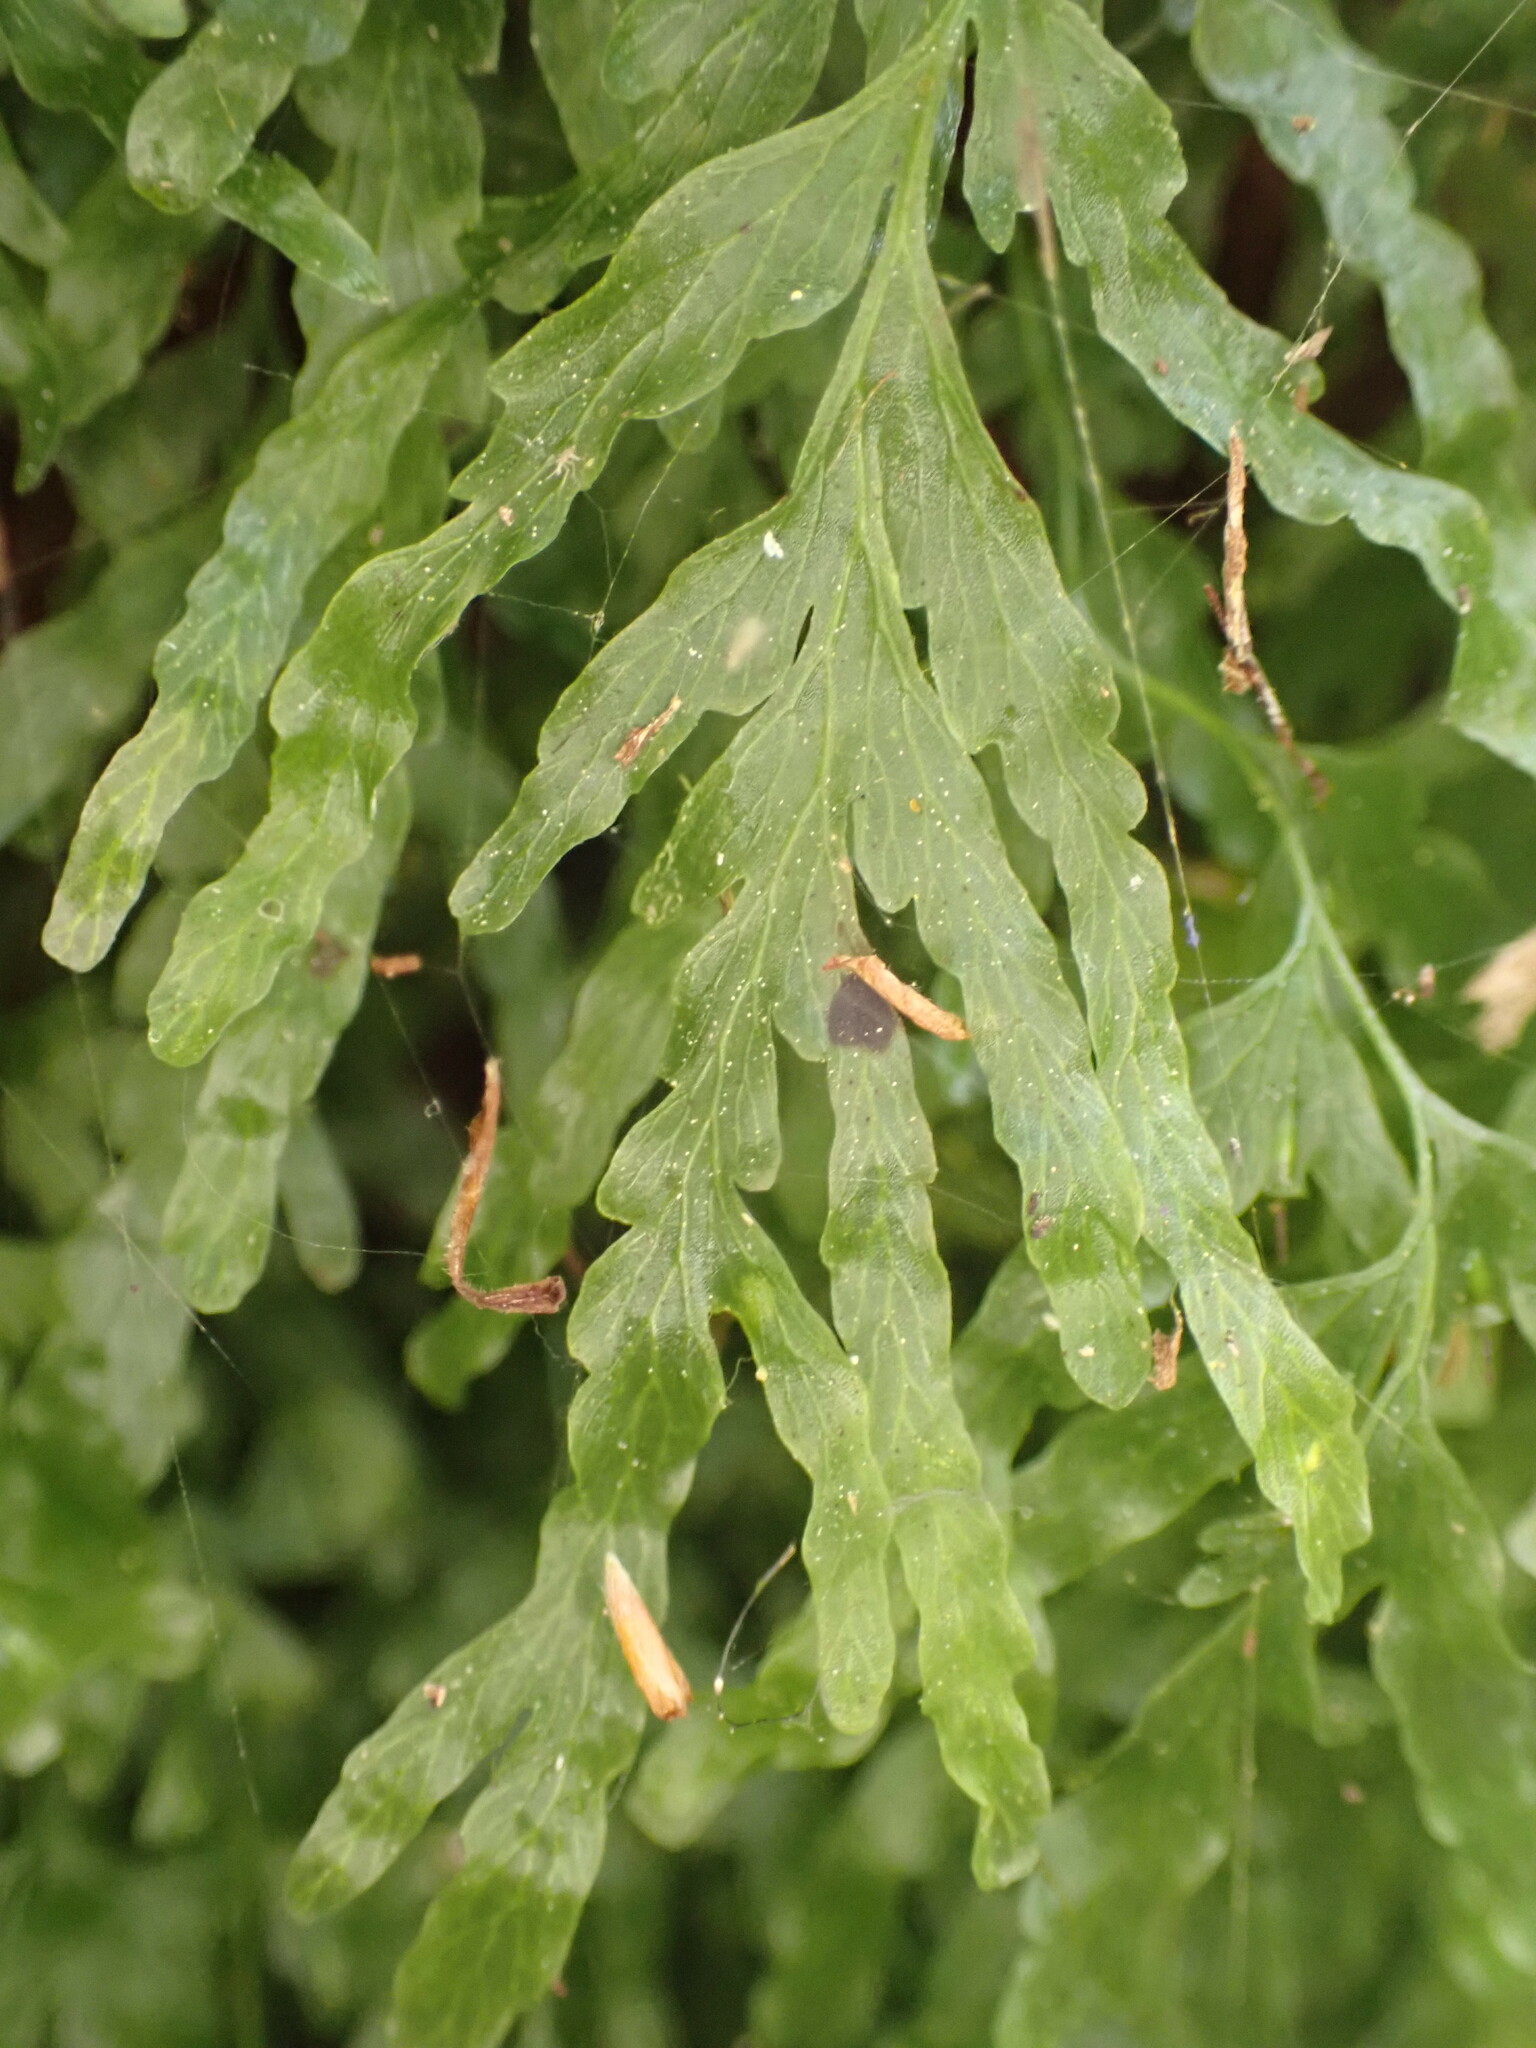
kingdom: Plantae
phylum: Tracheophyta
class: Polypodiopsida
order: Hymenophyllales
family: Hymenophyllaceae
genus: Polyphlebium
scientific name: Polyphlebium venosum
